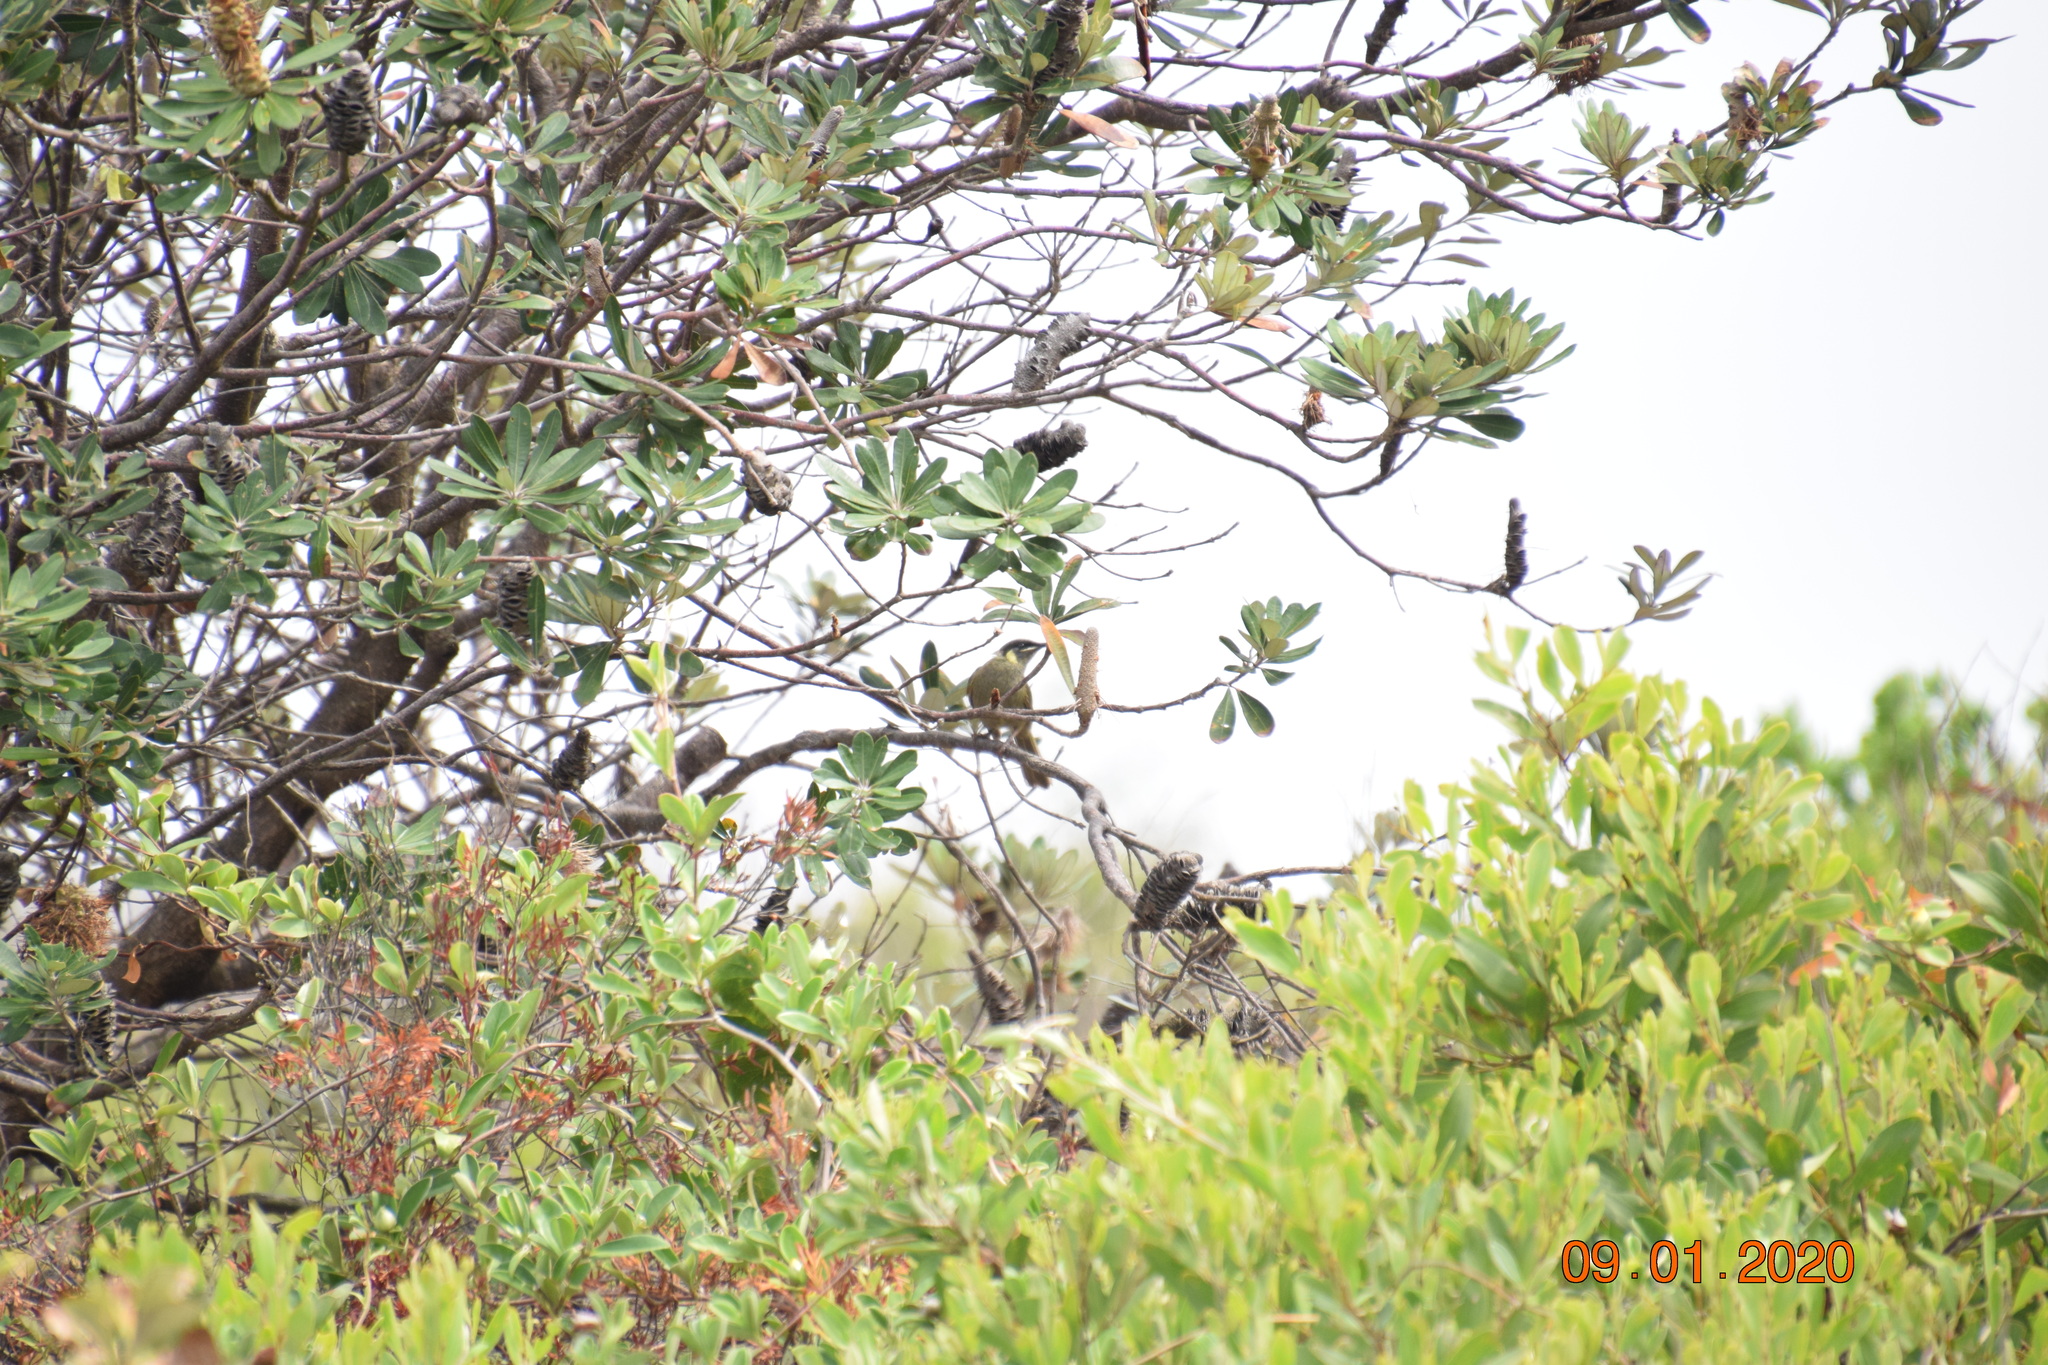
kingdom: Animalia
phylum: Chordata
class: Aves
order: Passeriformes
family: Meliphagidae
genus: Meliphaga
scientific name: Meliphaga lewinii
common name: Lewin's honeyeater
